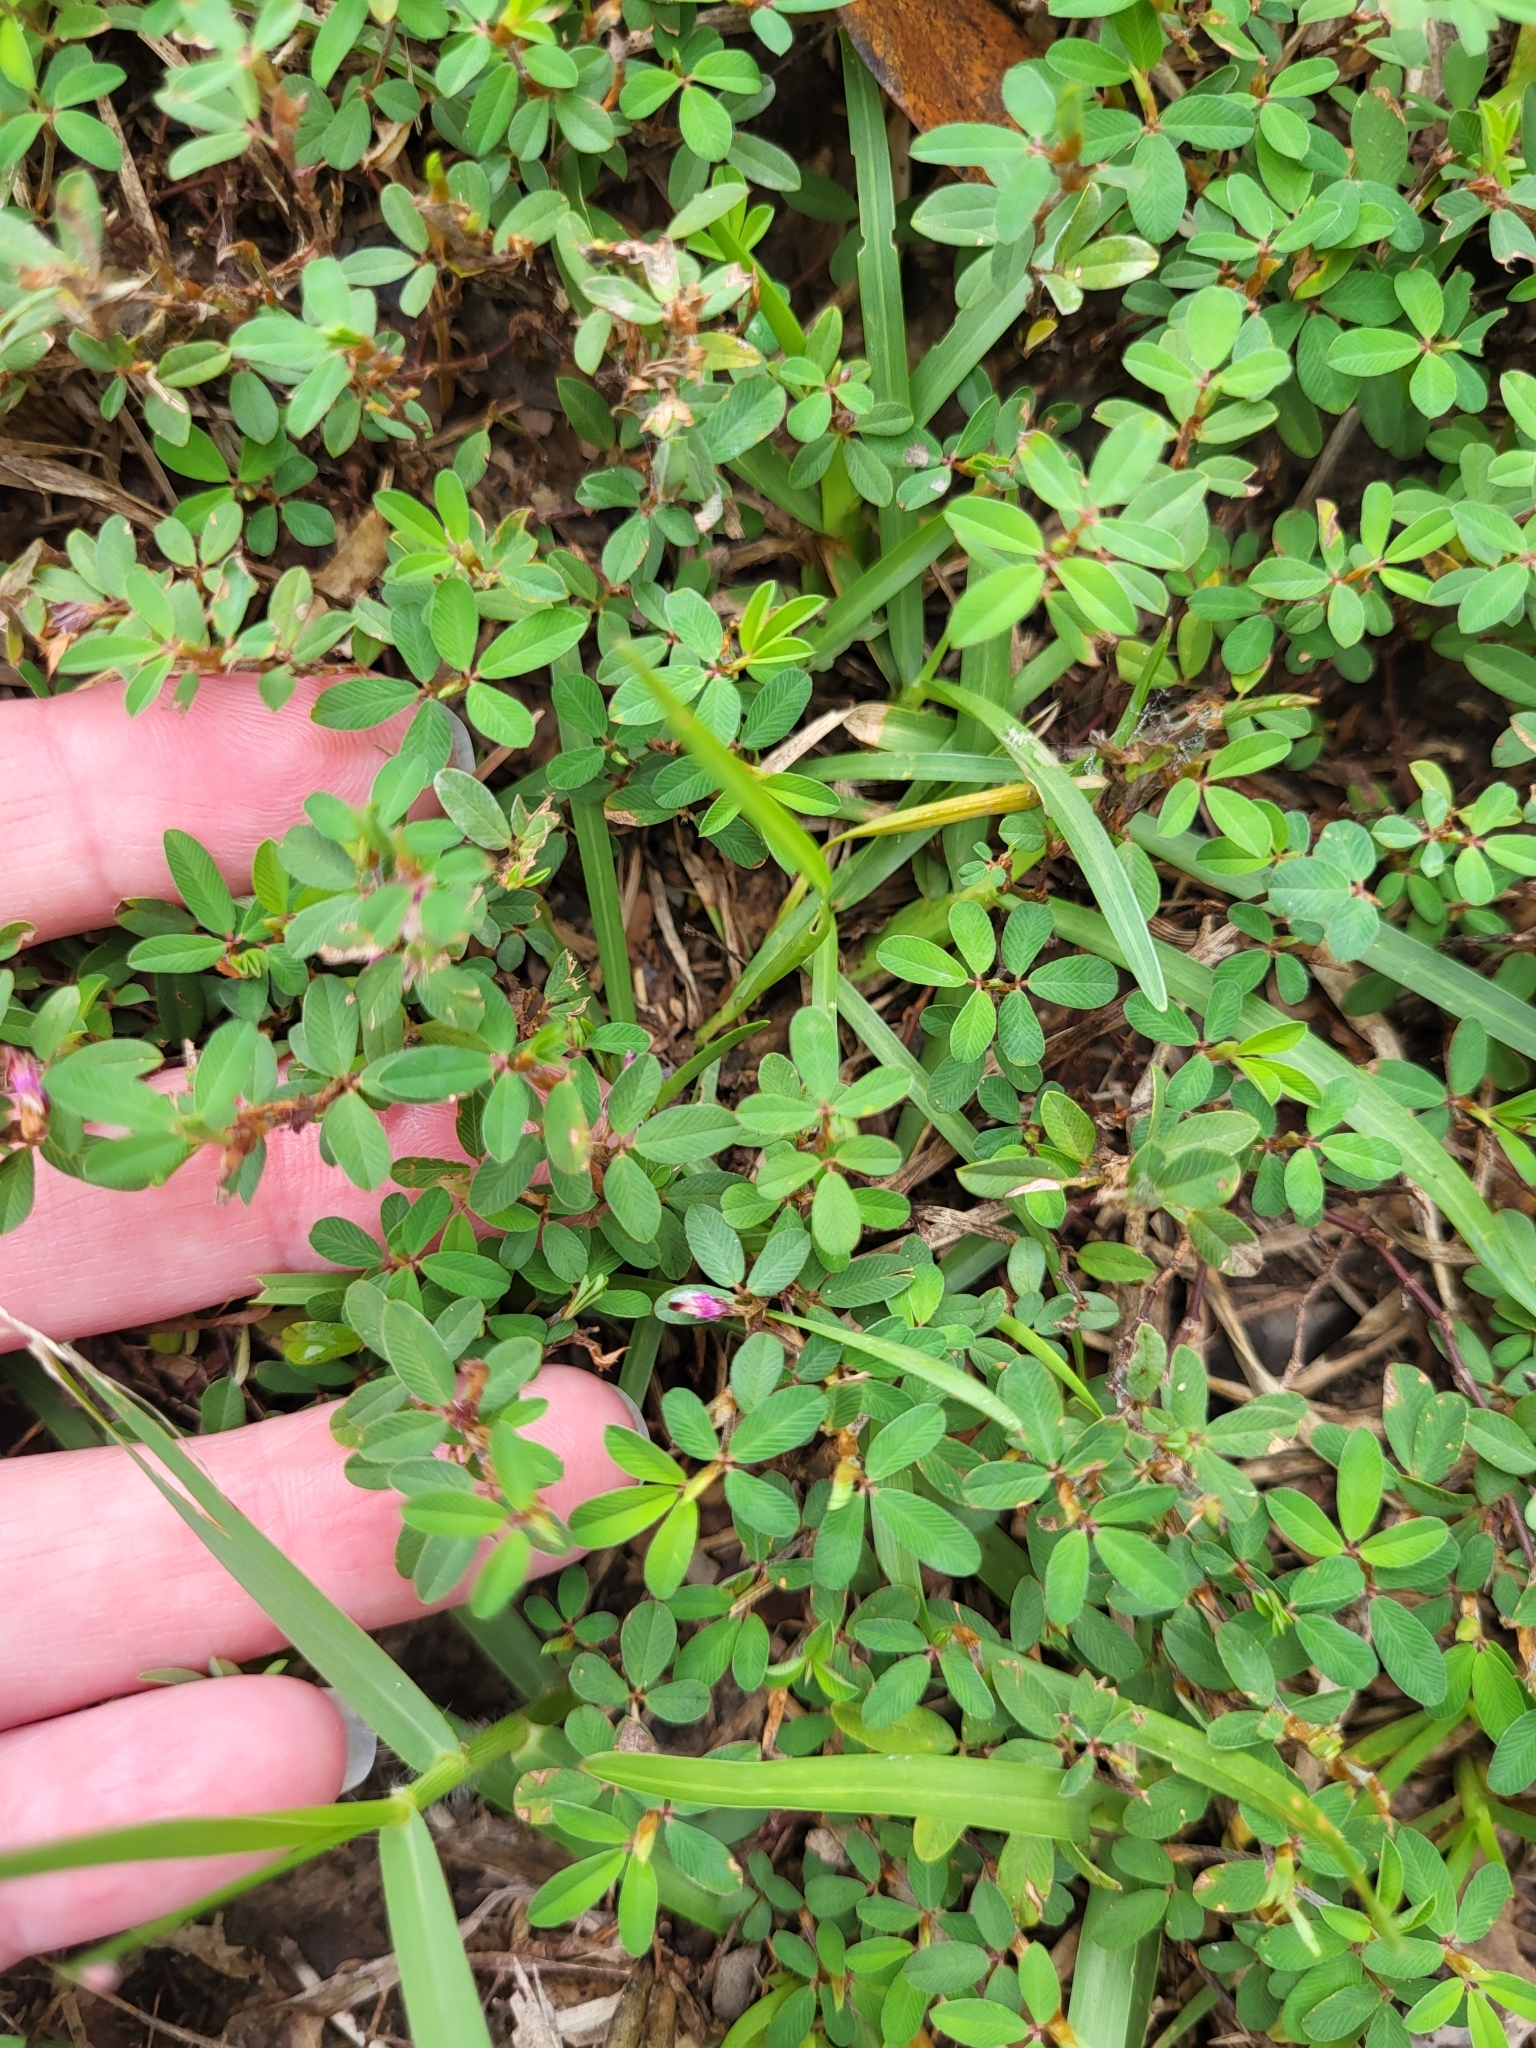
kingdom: Plantae
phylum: Tracheophyta
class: Magnoliopsida
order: Fabales
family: Fabaceae
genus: Kummerowia
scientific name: Kummerowia striata
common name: Japanese clover
